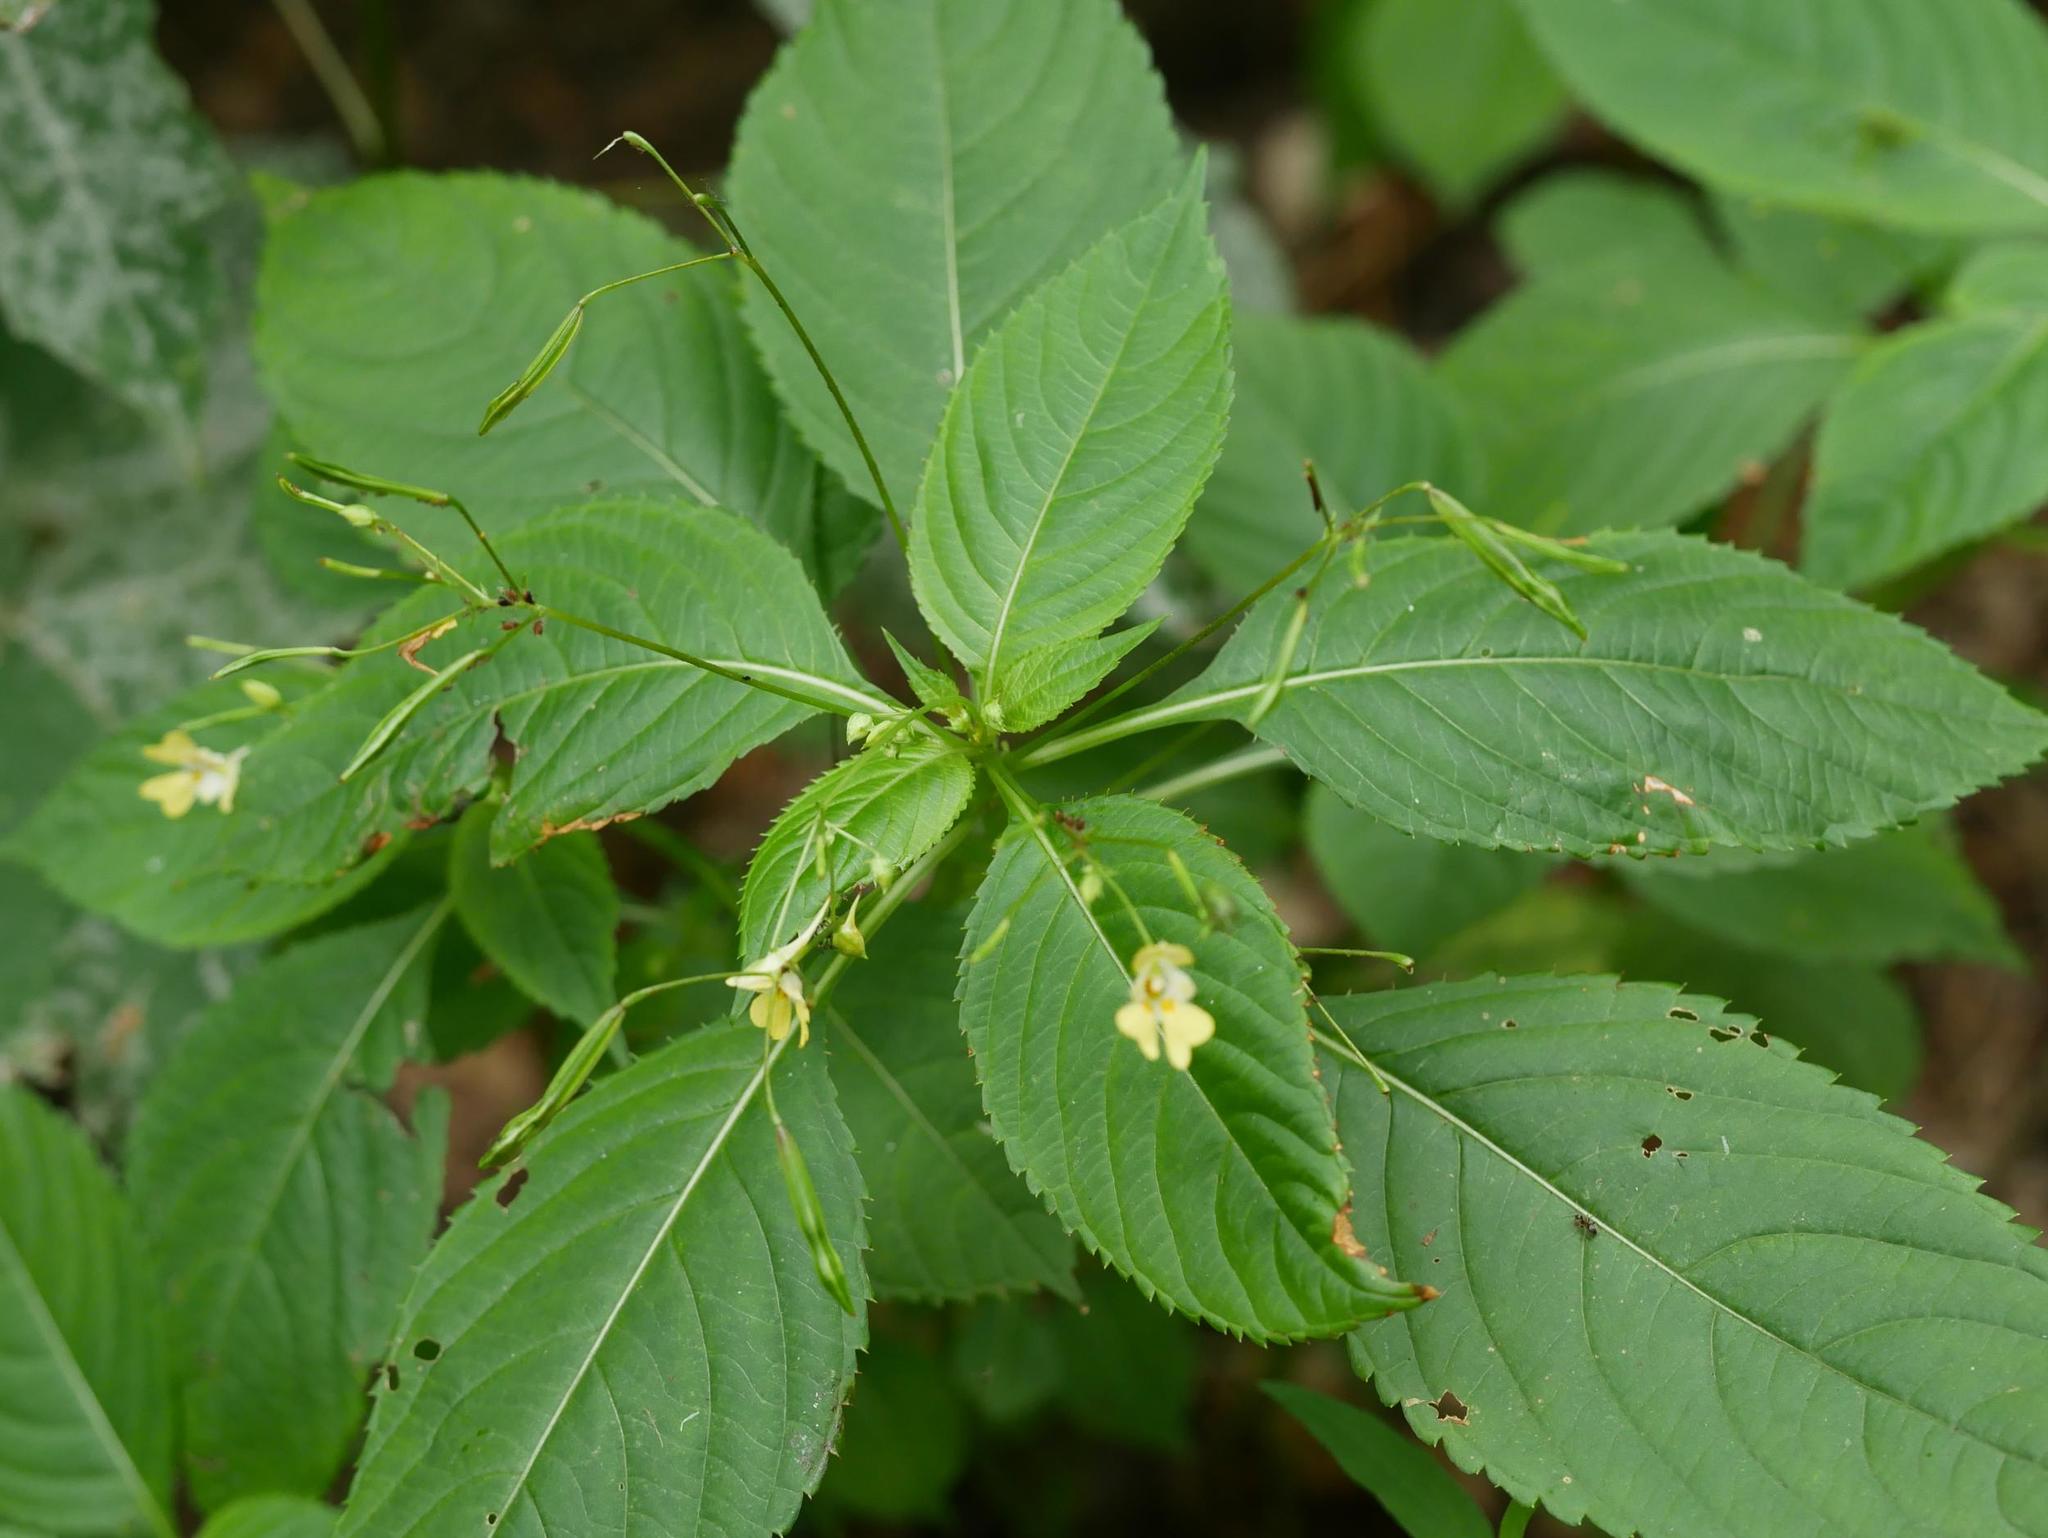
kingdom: Plantae
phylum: Tracheophyta
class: Magnoliopsida
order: Ericales
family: Balsaminaceae
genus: Impatiens
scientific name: Impatiens parviflora
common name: Small balsam
